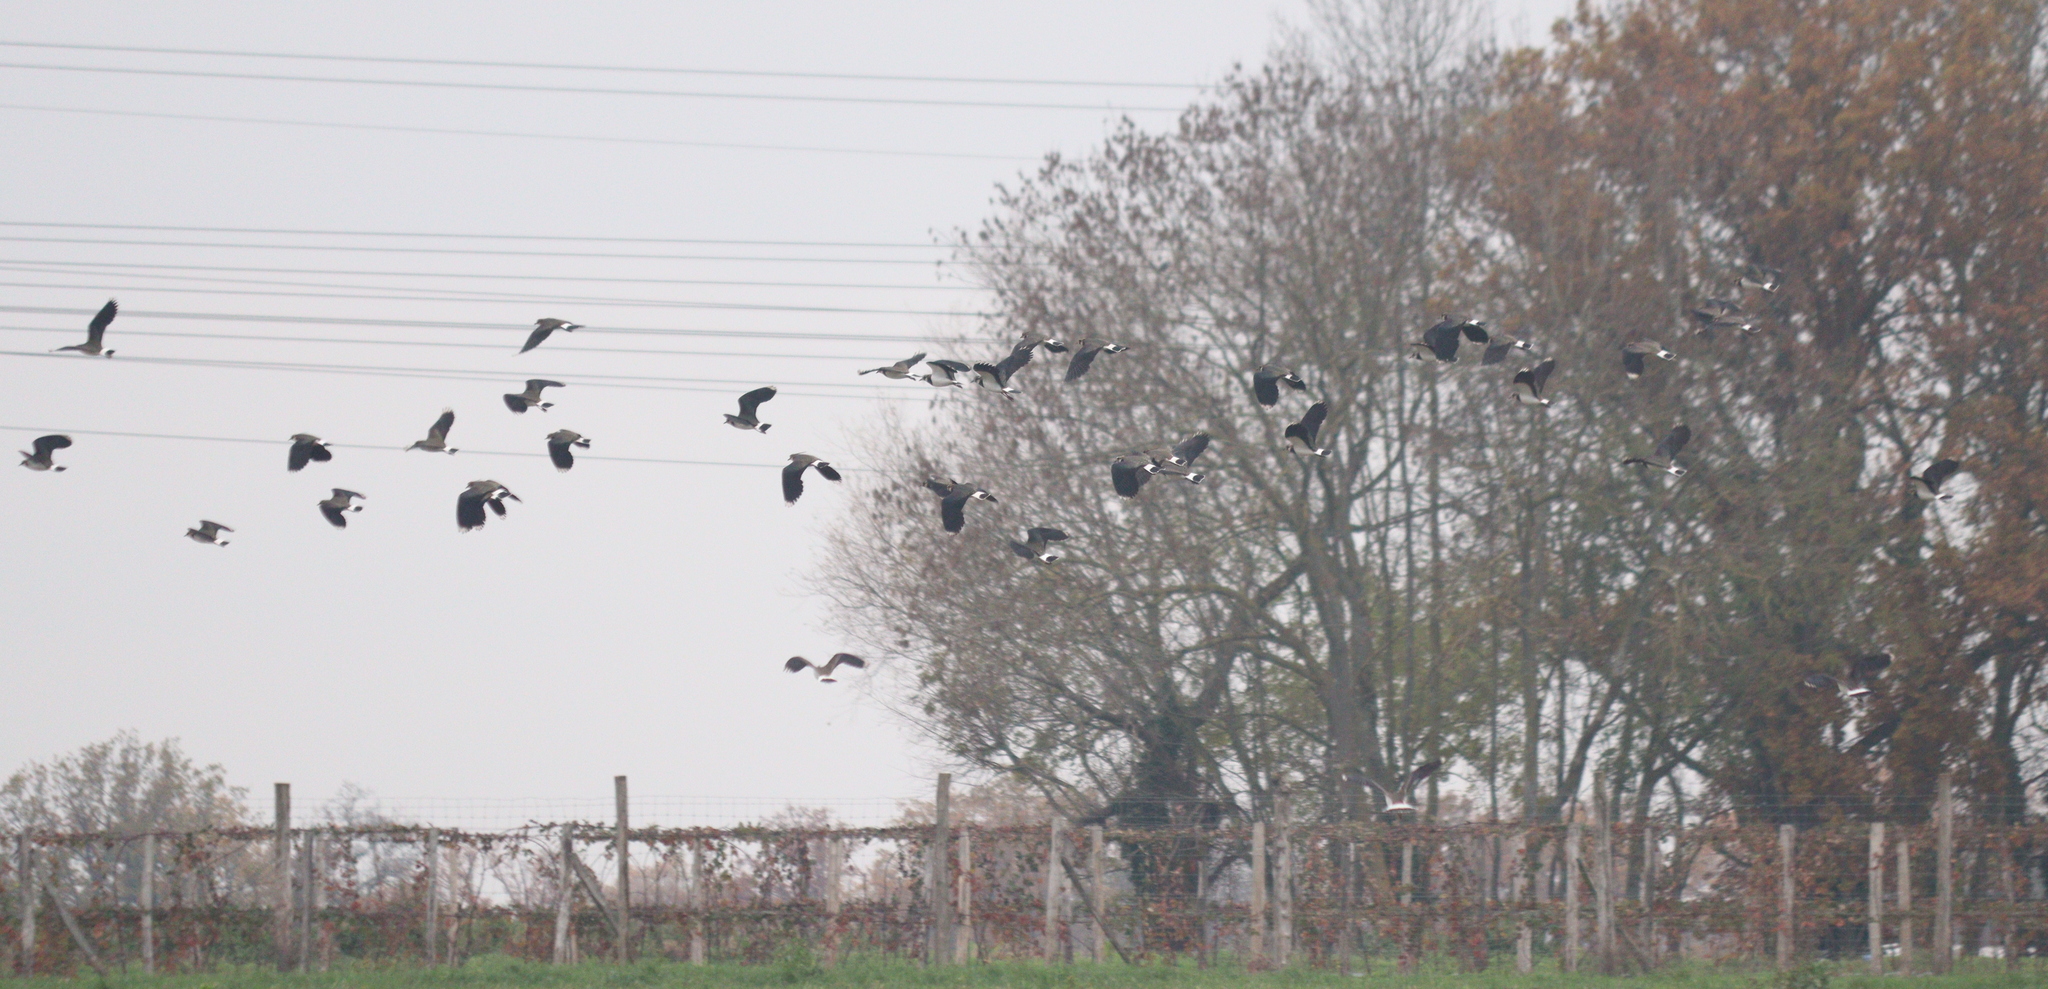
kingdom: Animalia
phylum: Chordata
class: Aves
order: Charadriiformes
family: Charadriidae
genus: Vanellus
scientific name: Vanellus vanellus
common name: Northern lapwing
